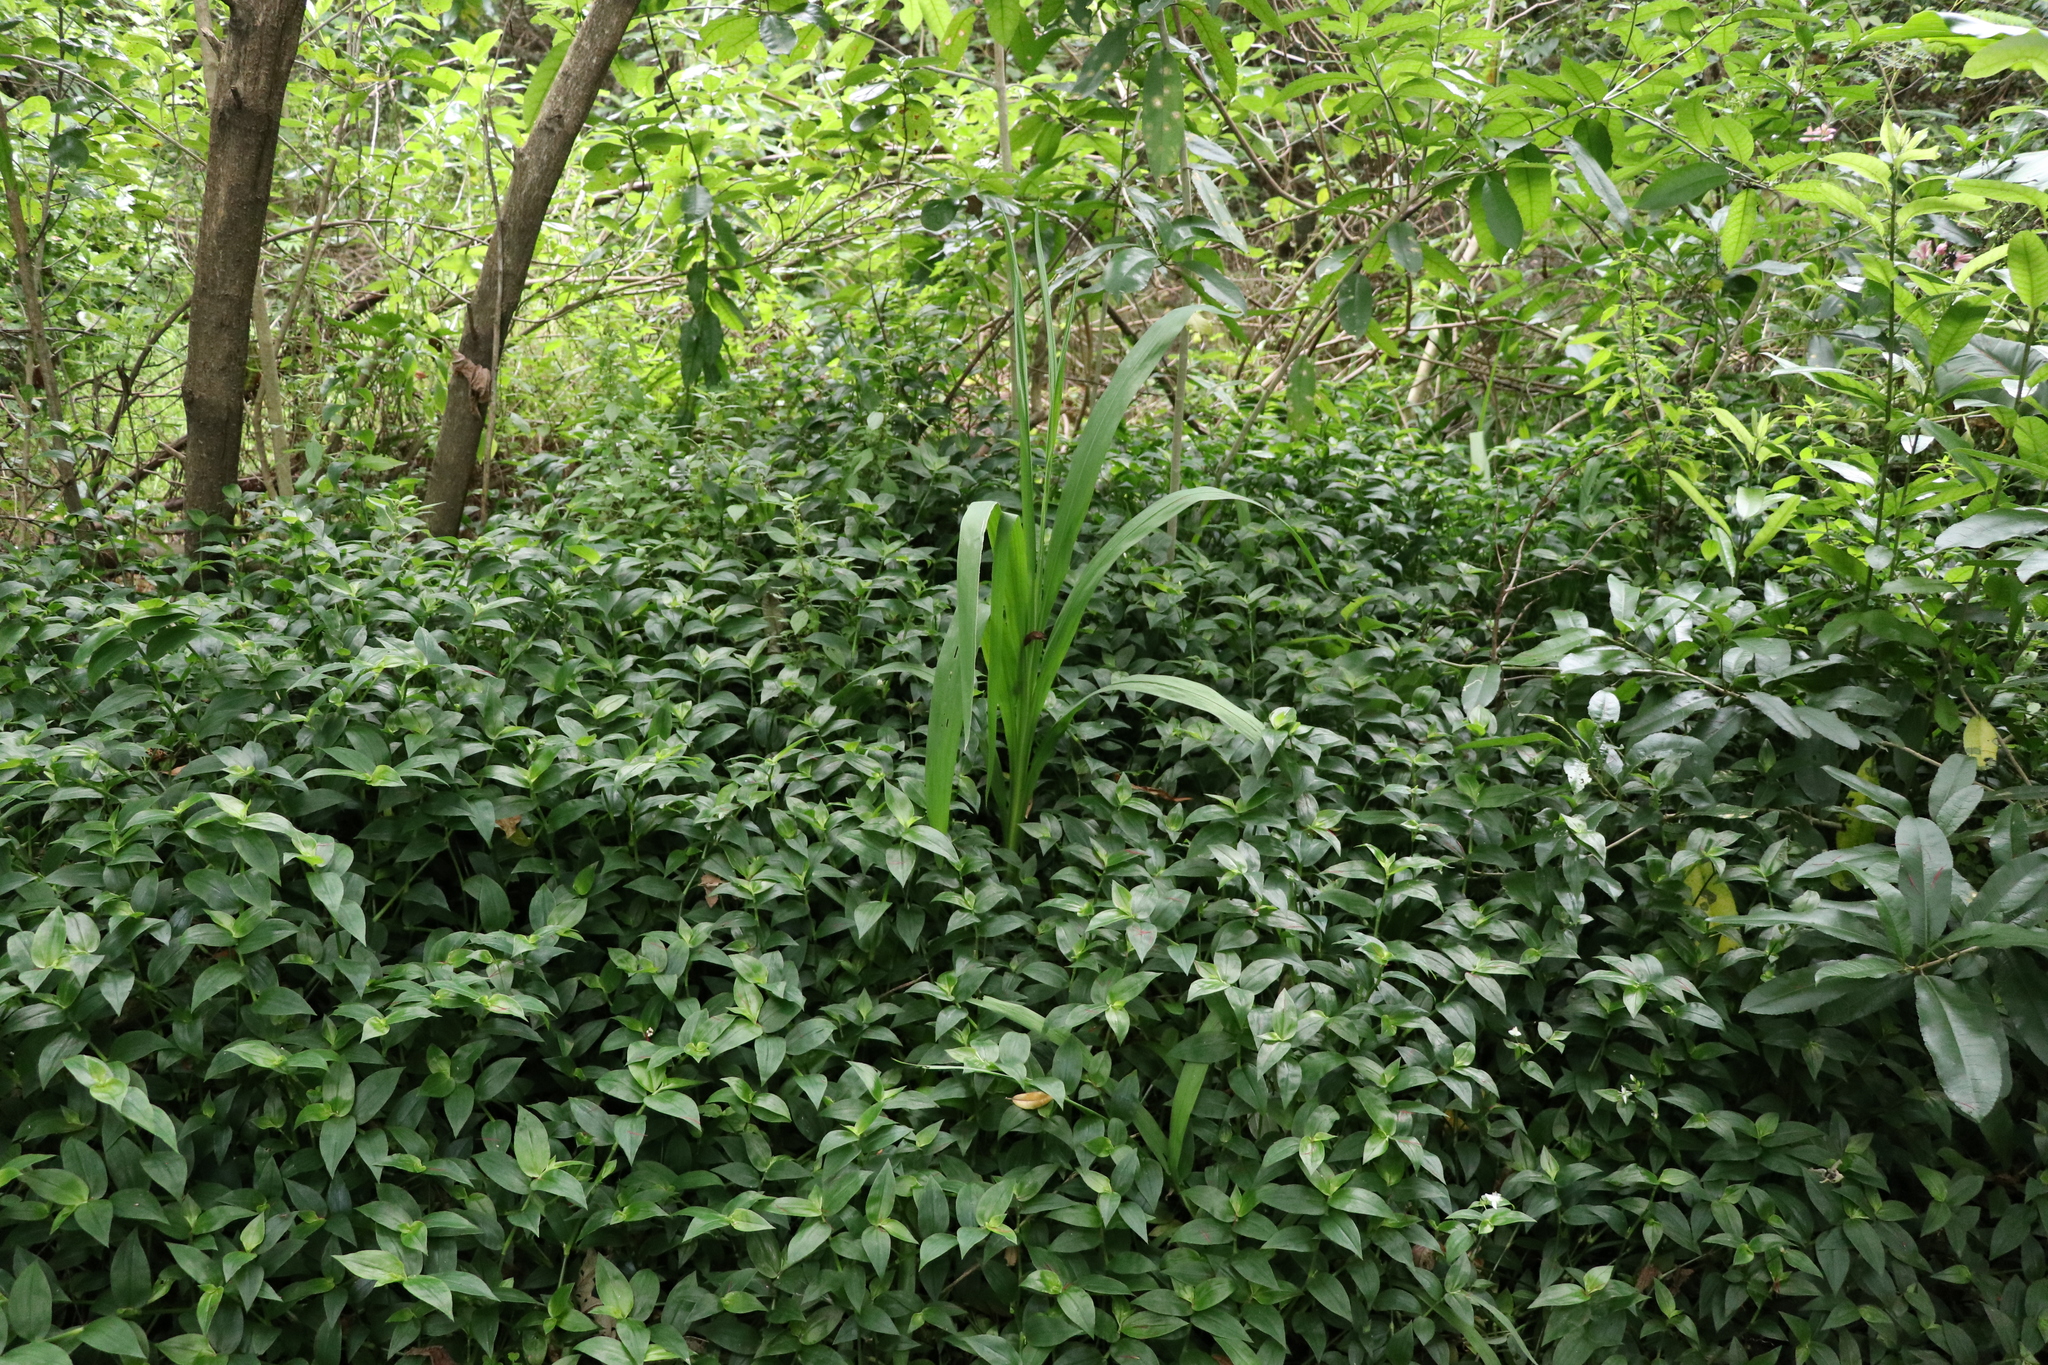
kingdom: Plantae
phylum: Tracheophyta
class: Liliopsida
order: Asparagales
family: Iridaceae
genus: Crocosmia
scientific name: Crocosmia crocosmiiflora
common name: Montbretia
